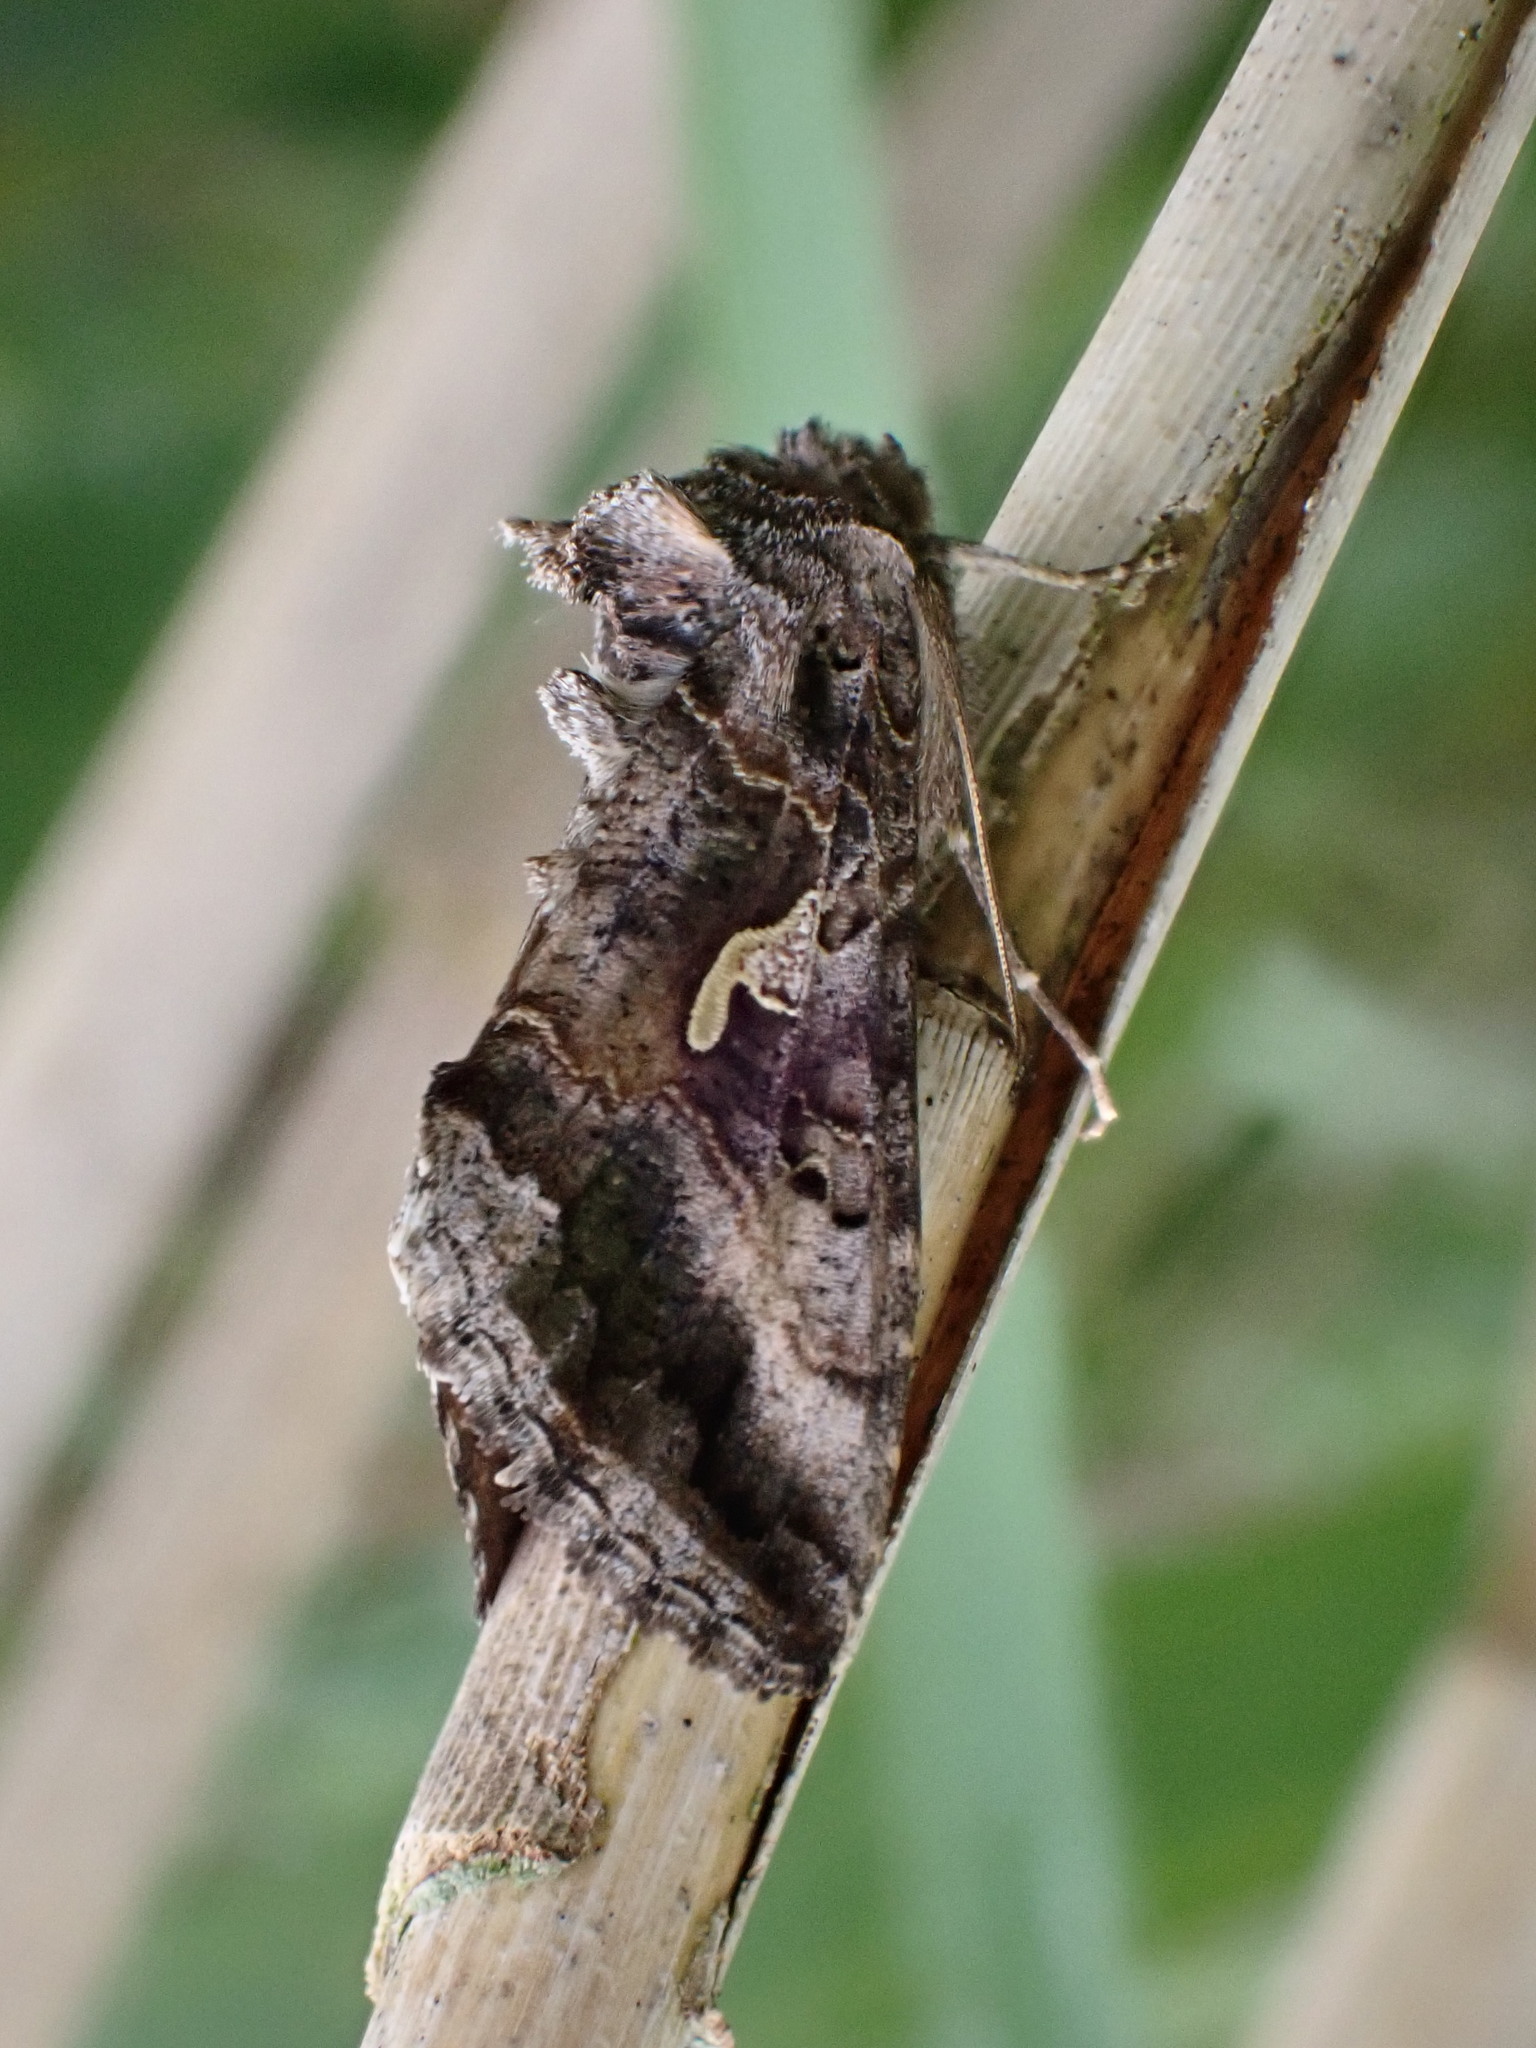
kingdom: Animalia
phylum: Arthropoda
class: Insecta
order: Lepidoptera
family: Noctuidae
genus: Autographa
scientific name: Autographa gamma
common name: Silver y
